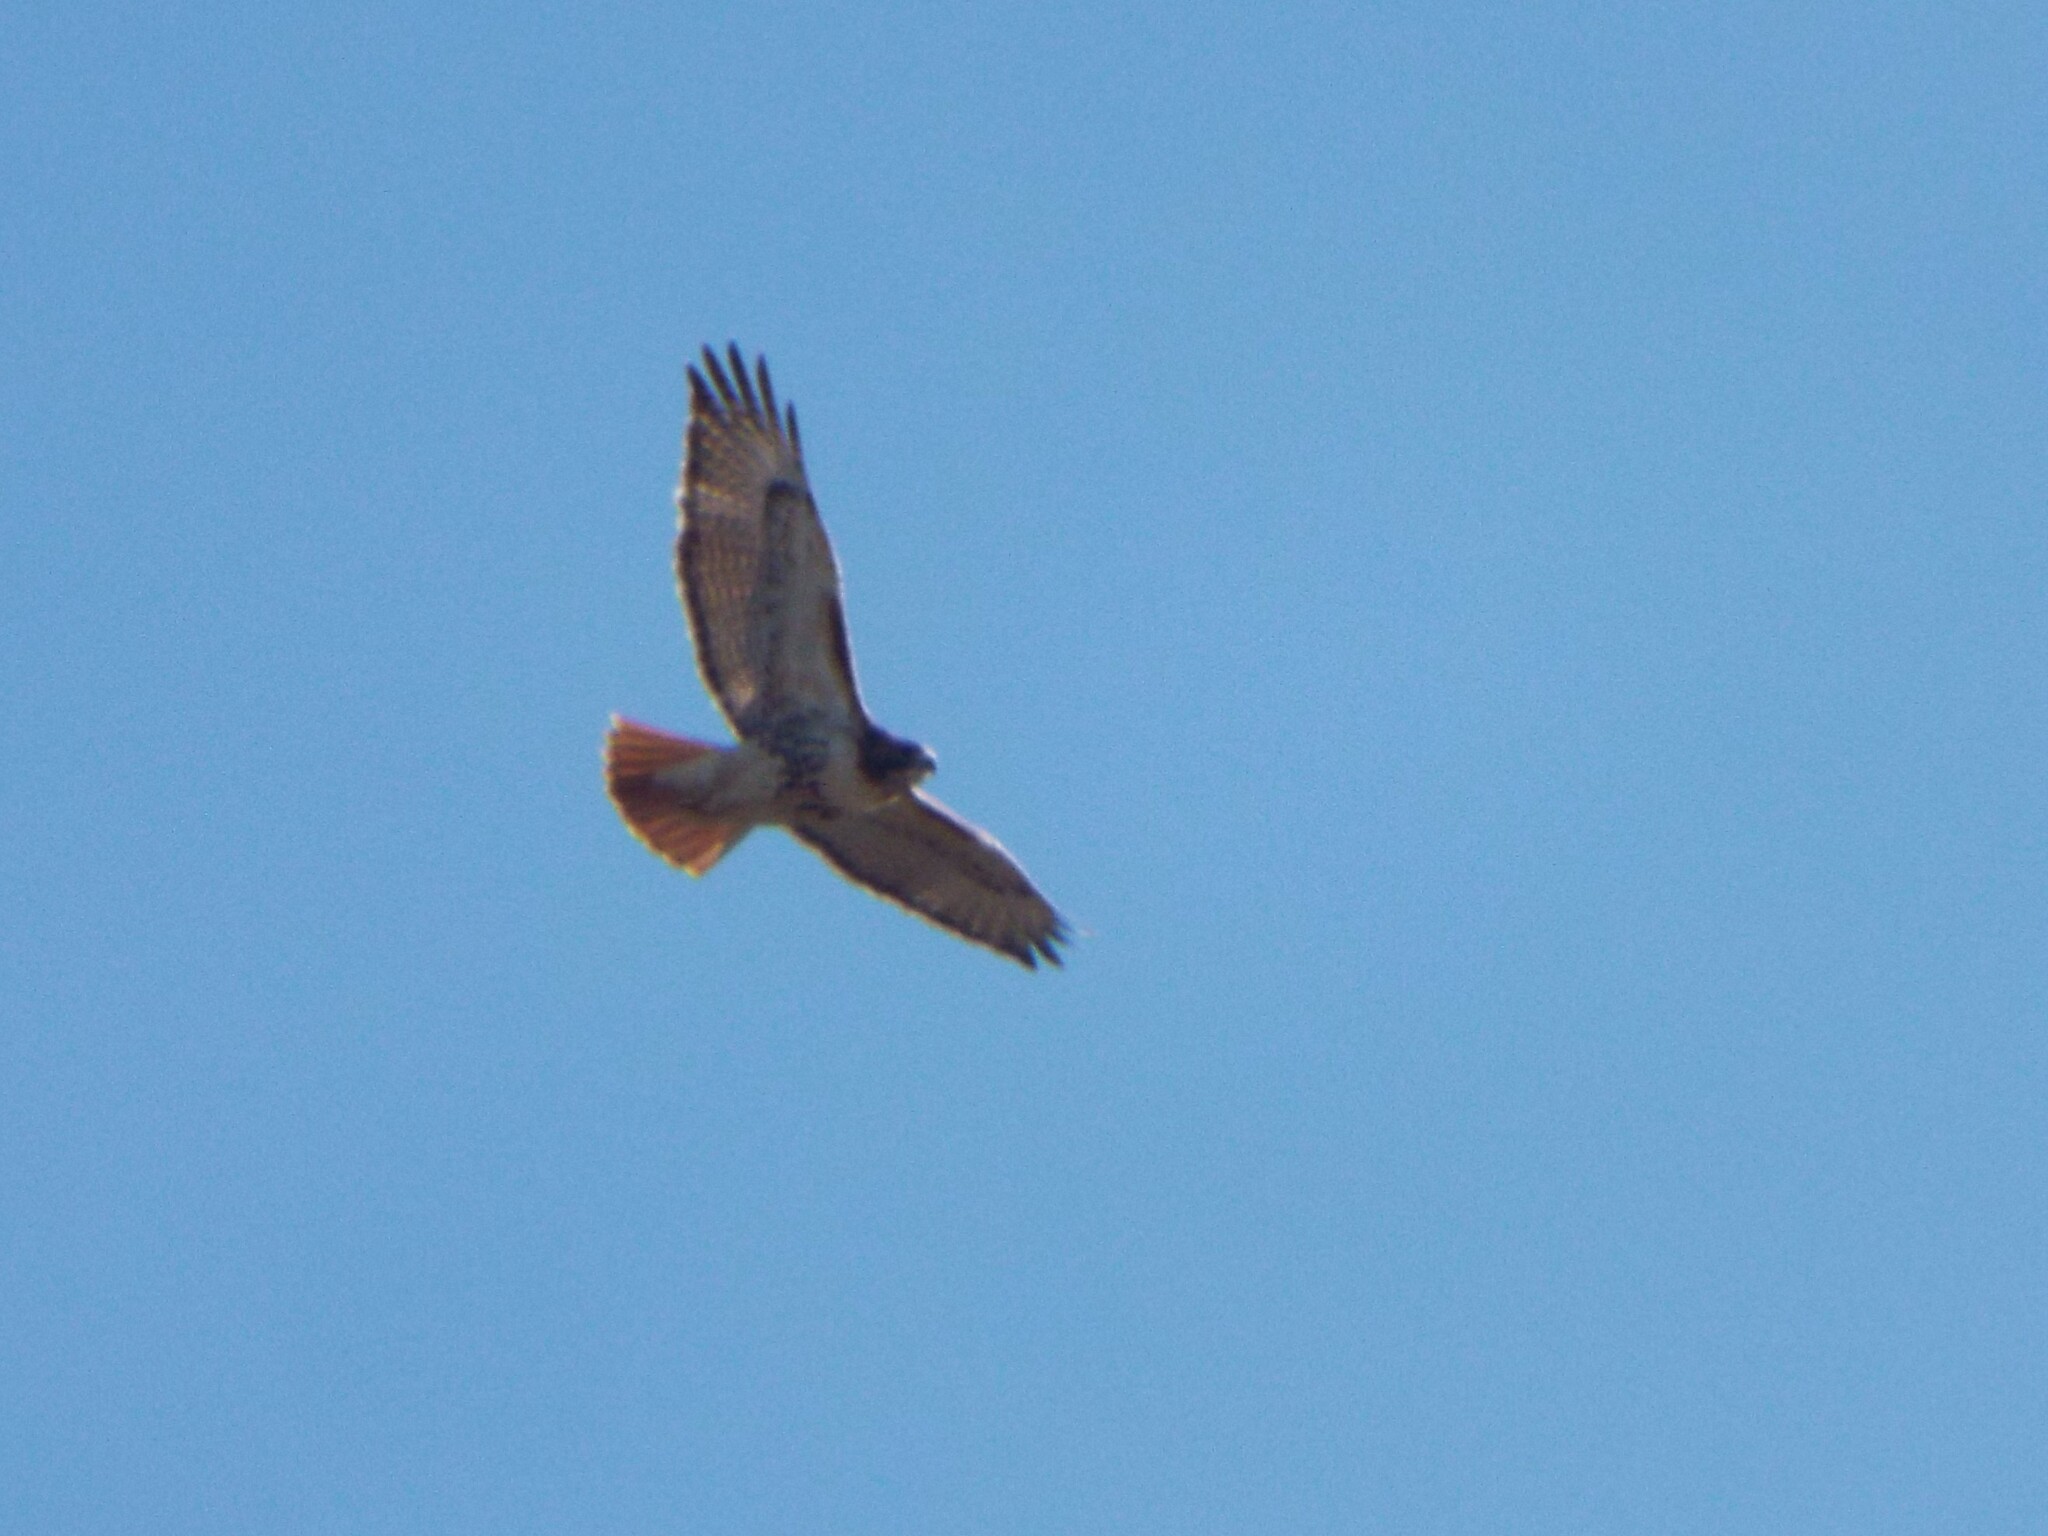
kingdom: Animalia
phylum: Chordata
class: Aves
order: Accipitriformes
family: Accipitridae
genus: Buteo
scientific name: Buteo jamaicensis
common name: Red-tailed hawk
